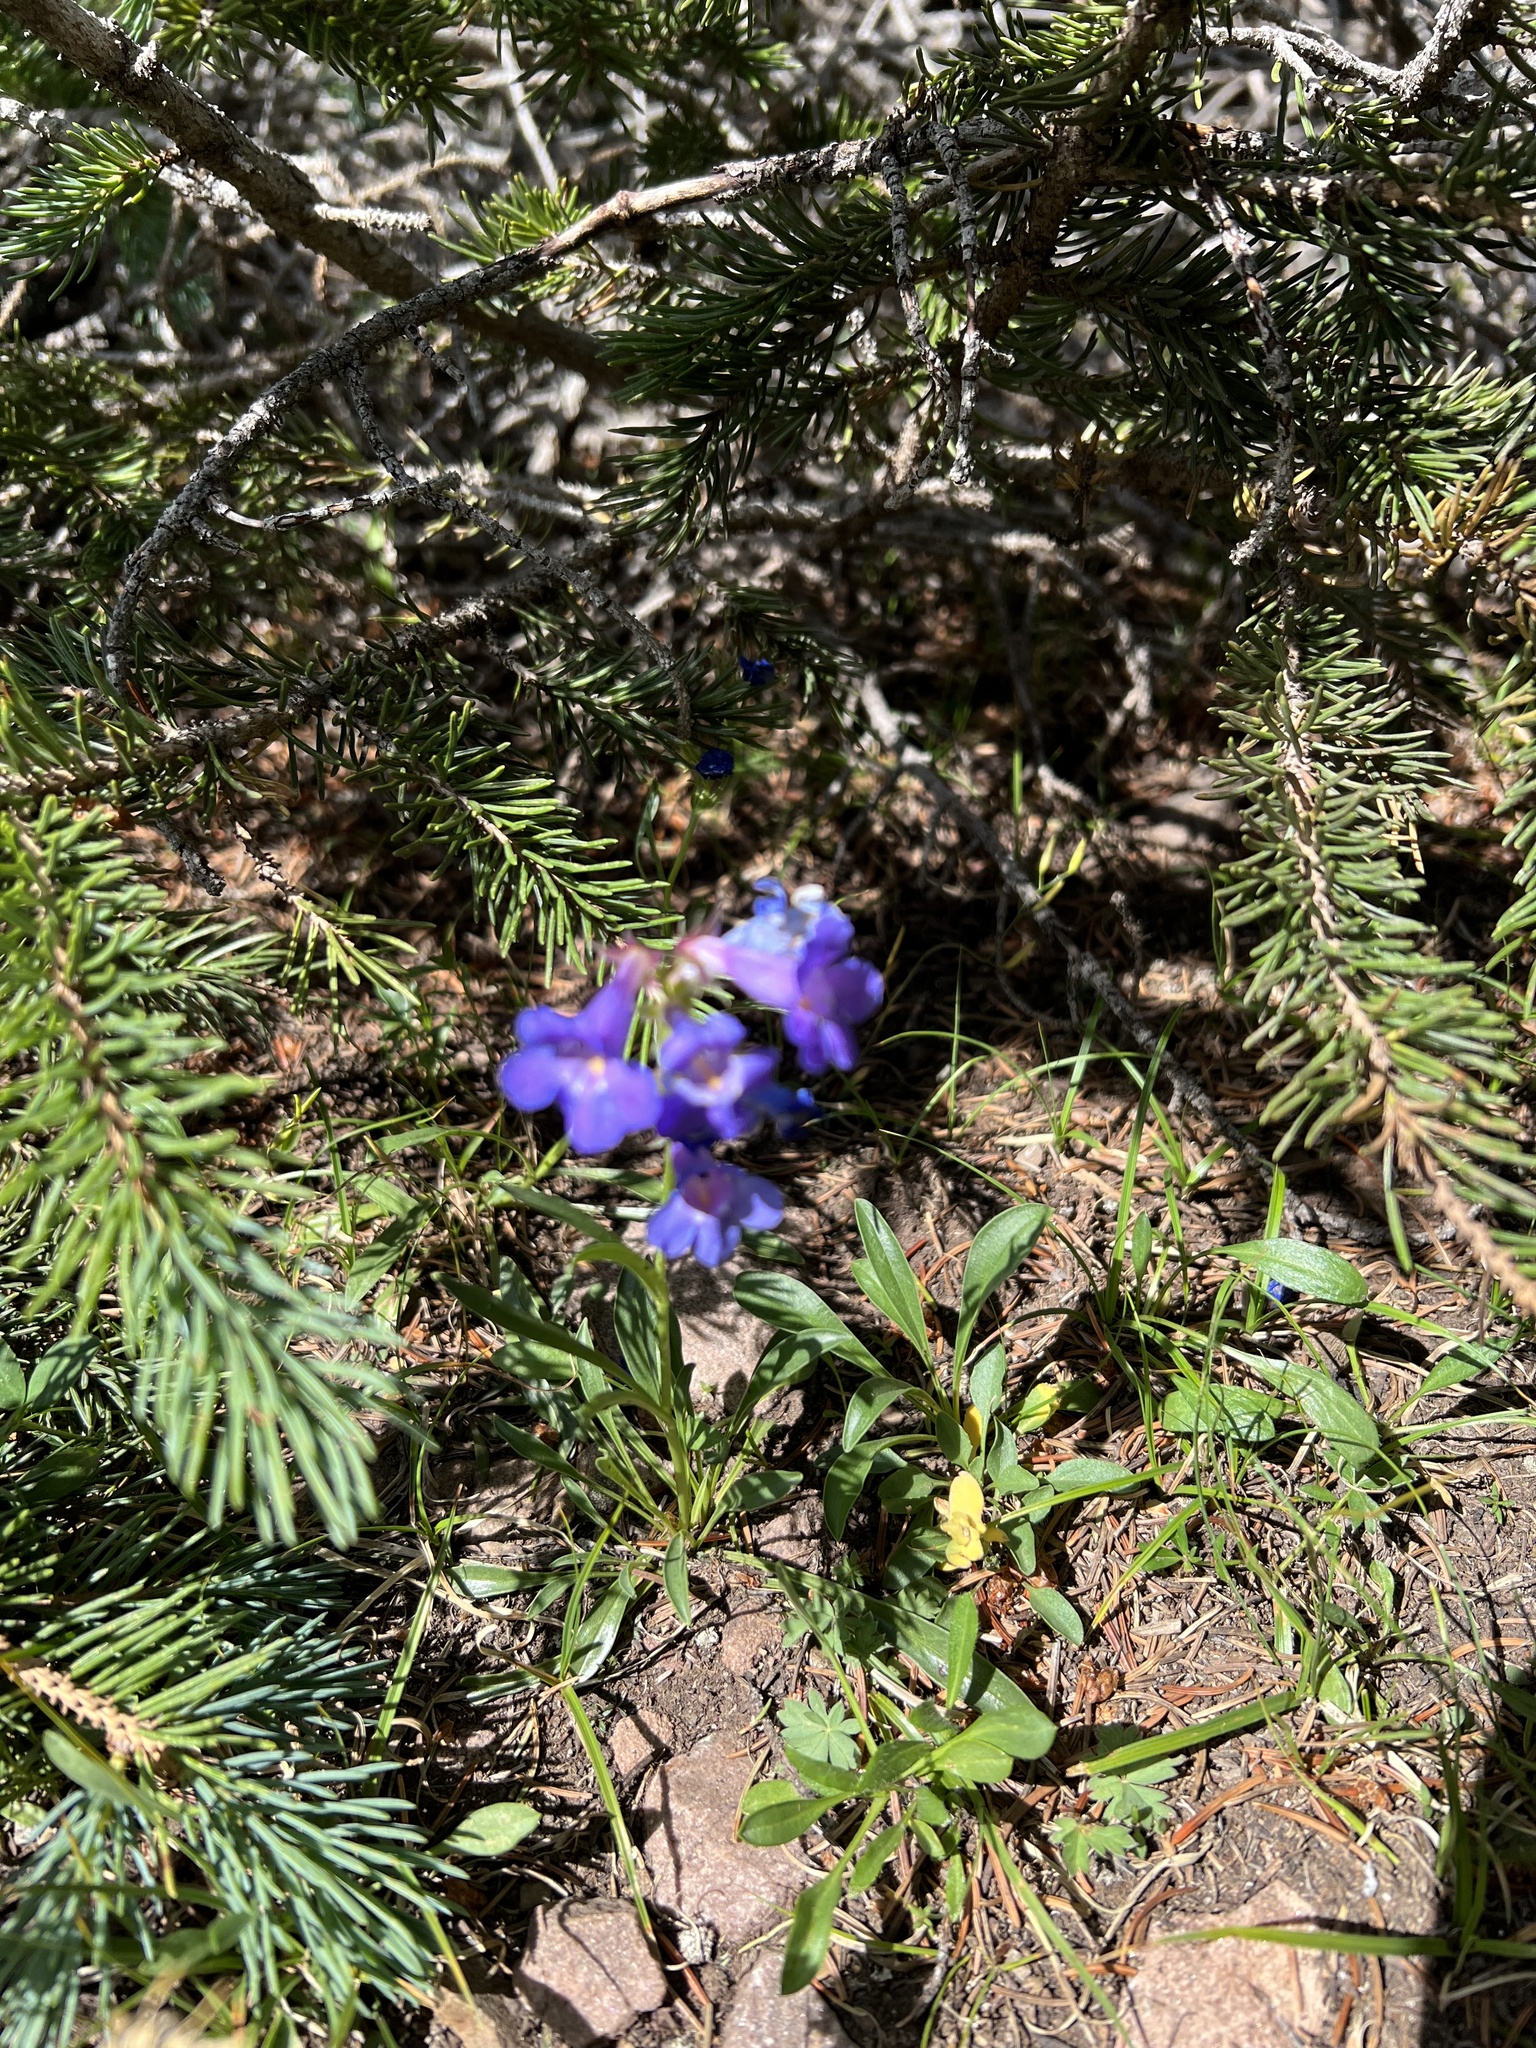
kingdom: Plantae
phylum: Tracheophyta
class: Magnoliopsida
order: Lamiales
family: Plantaginaceae
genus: Penstemon
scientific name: Penstemon uintahensis
